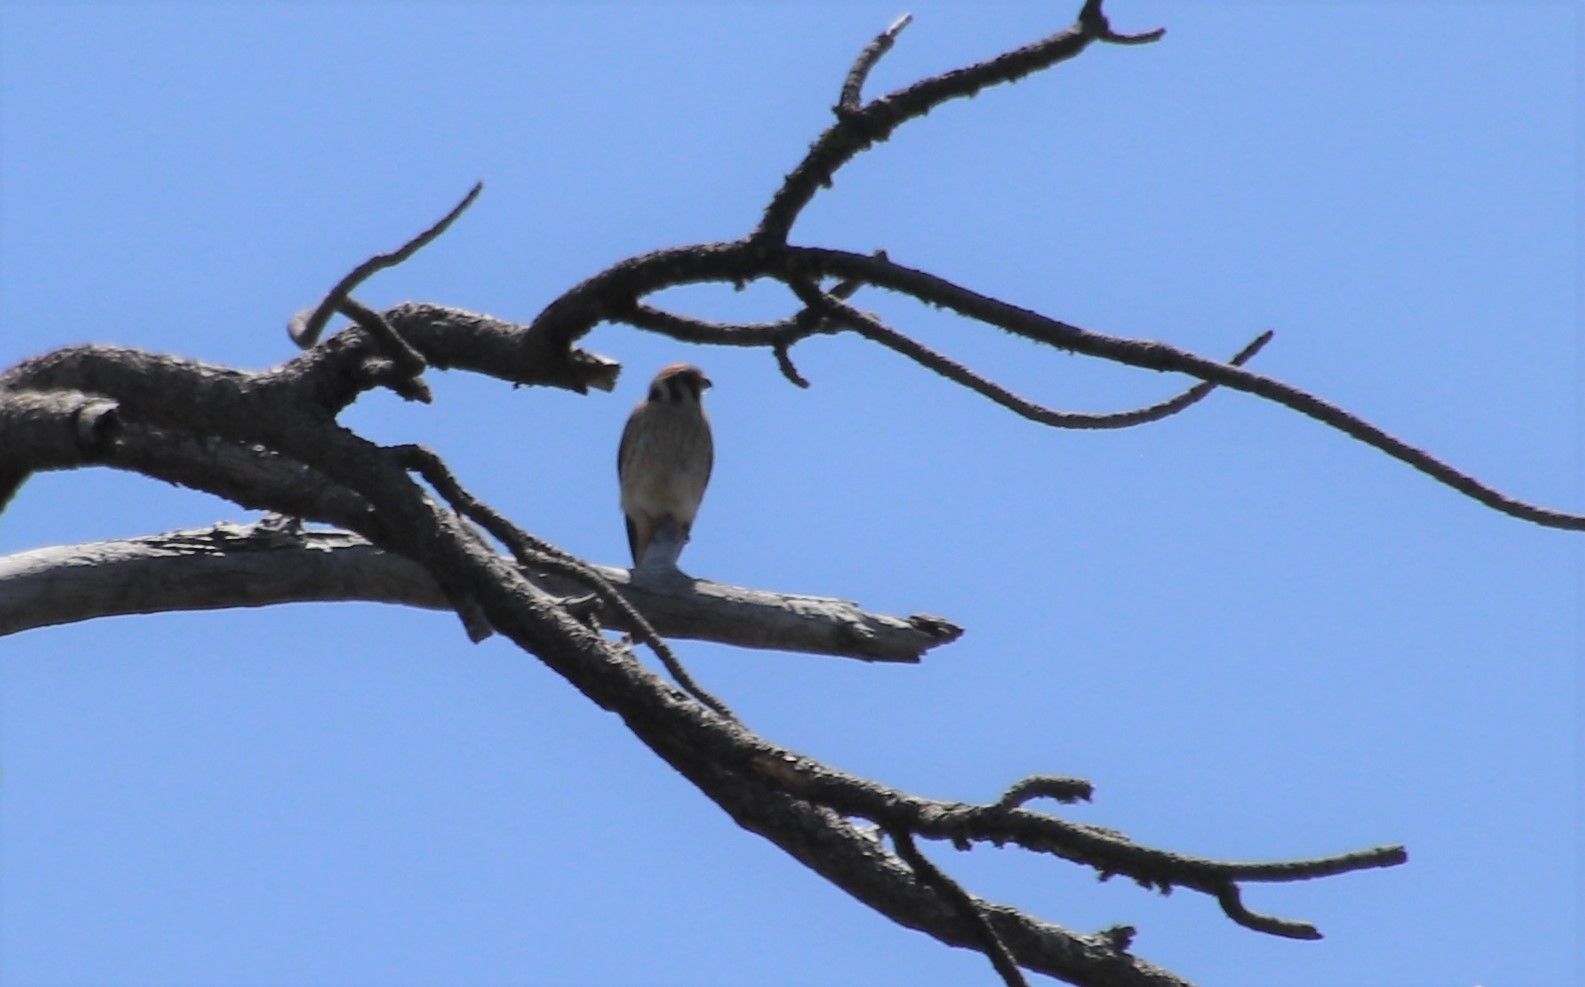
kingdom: Animalia
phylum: Chordata
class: Aves
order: Falconiformes
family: Falconidae
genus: Falco
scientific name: Falco sparverius
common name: American kestrel
